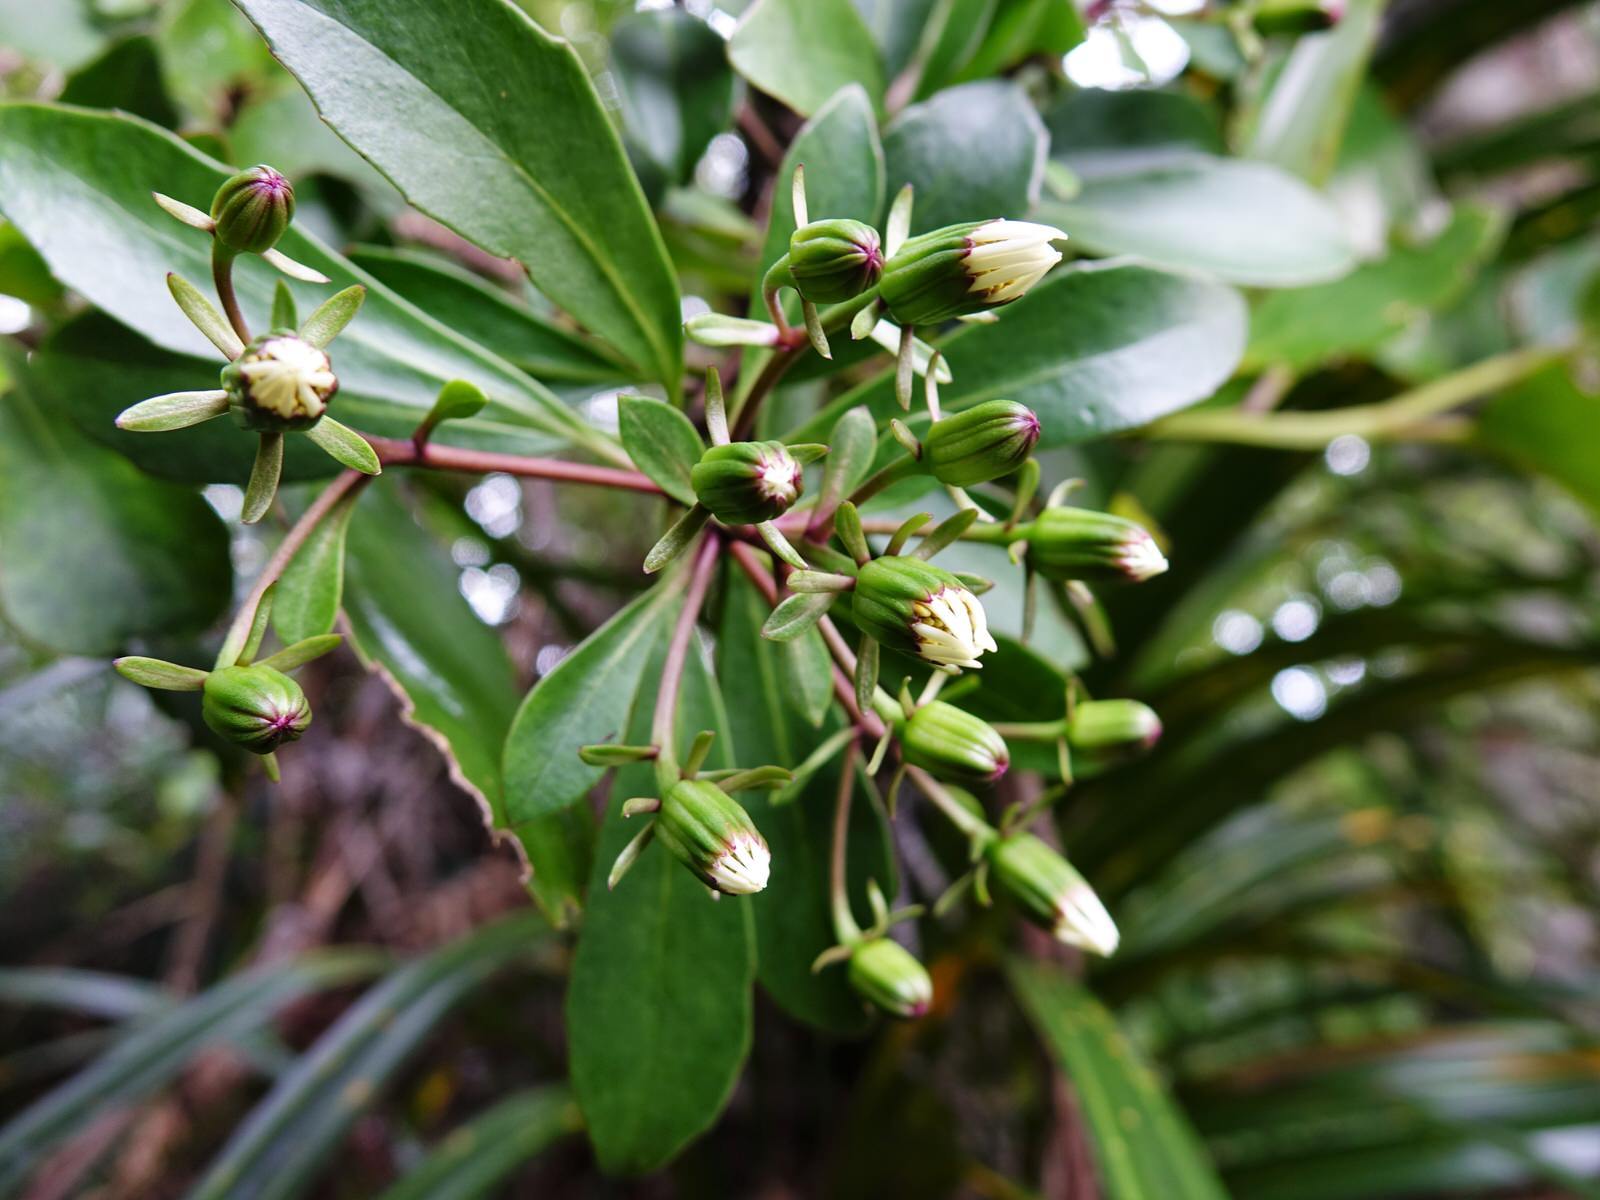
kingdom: Plantae
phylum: Tracheophyta
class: Magnoliopsida
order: Asterales
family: Asteraceae
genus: Brachyglottis
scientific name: Brachyglottis kirkii
